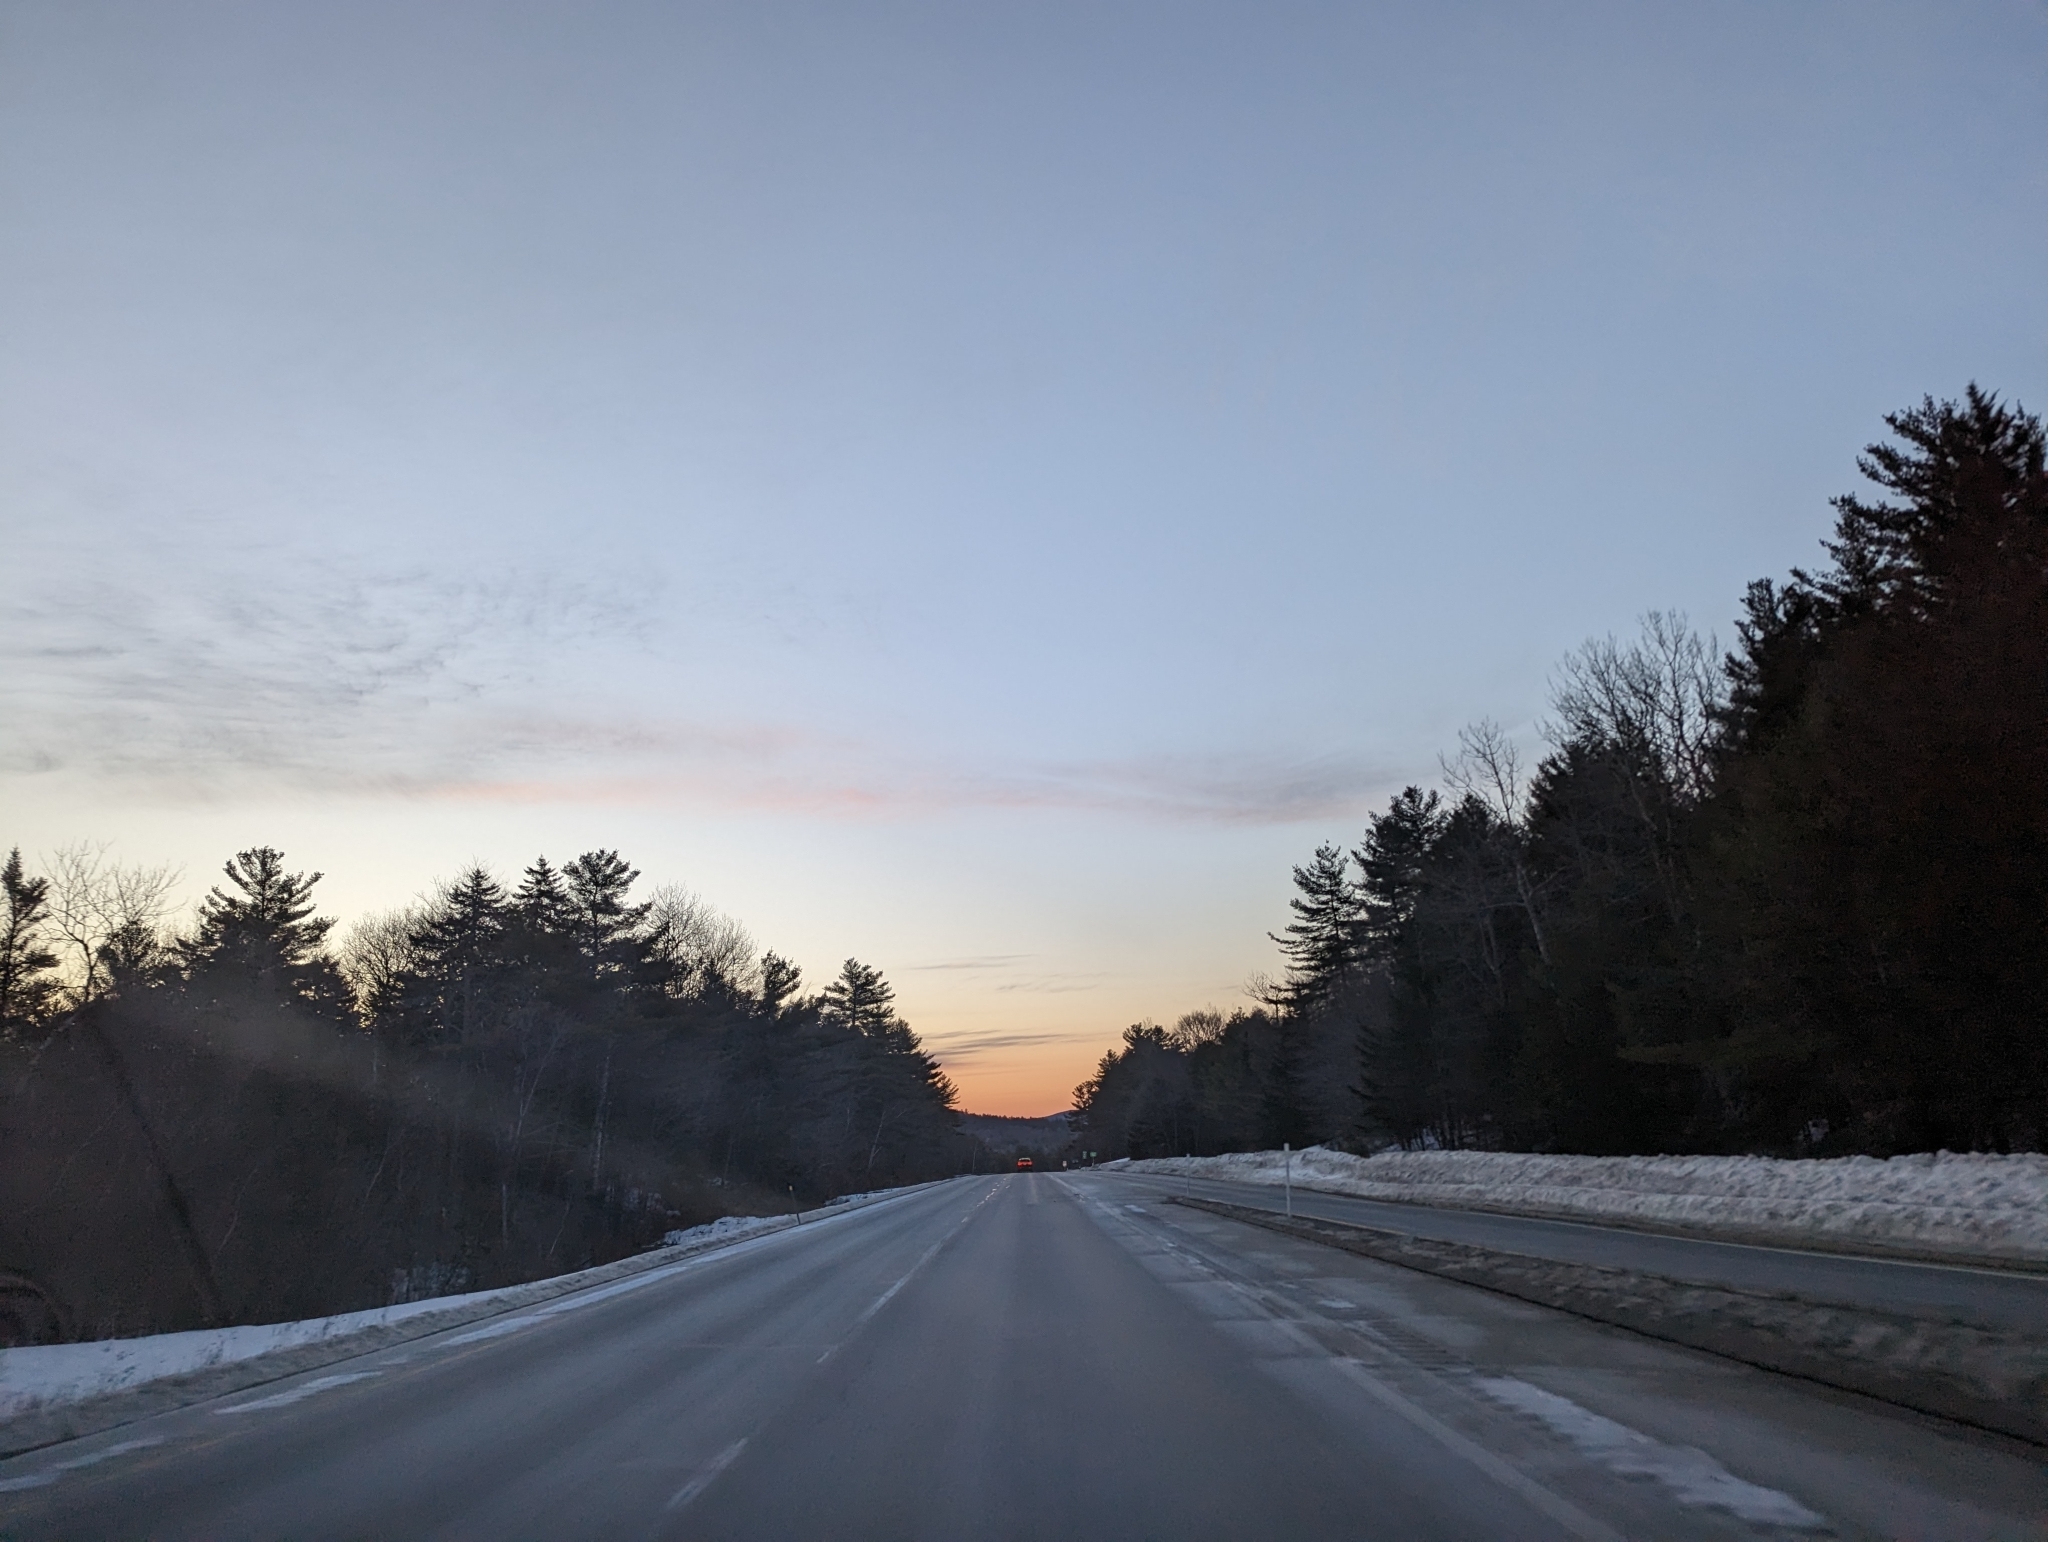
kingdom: Plantae
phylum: Tracheophyta
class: Pinopsida
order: Pinales
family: Pinaceae
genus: Pinus
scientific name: Pinus strobus
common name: Weymouth pine
